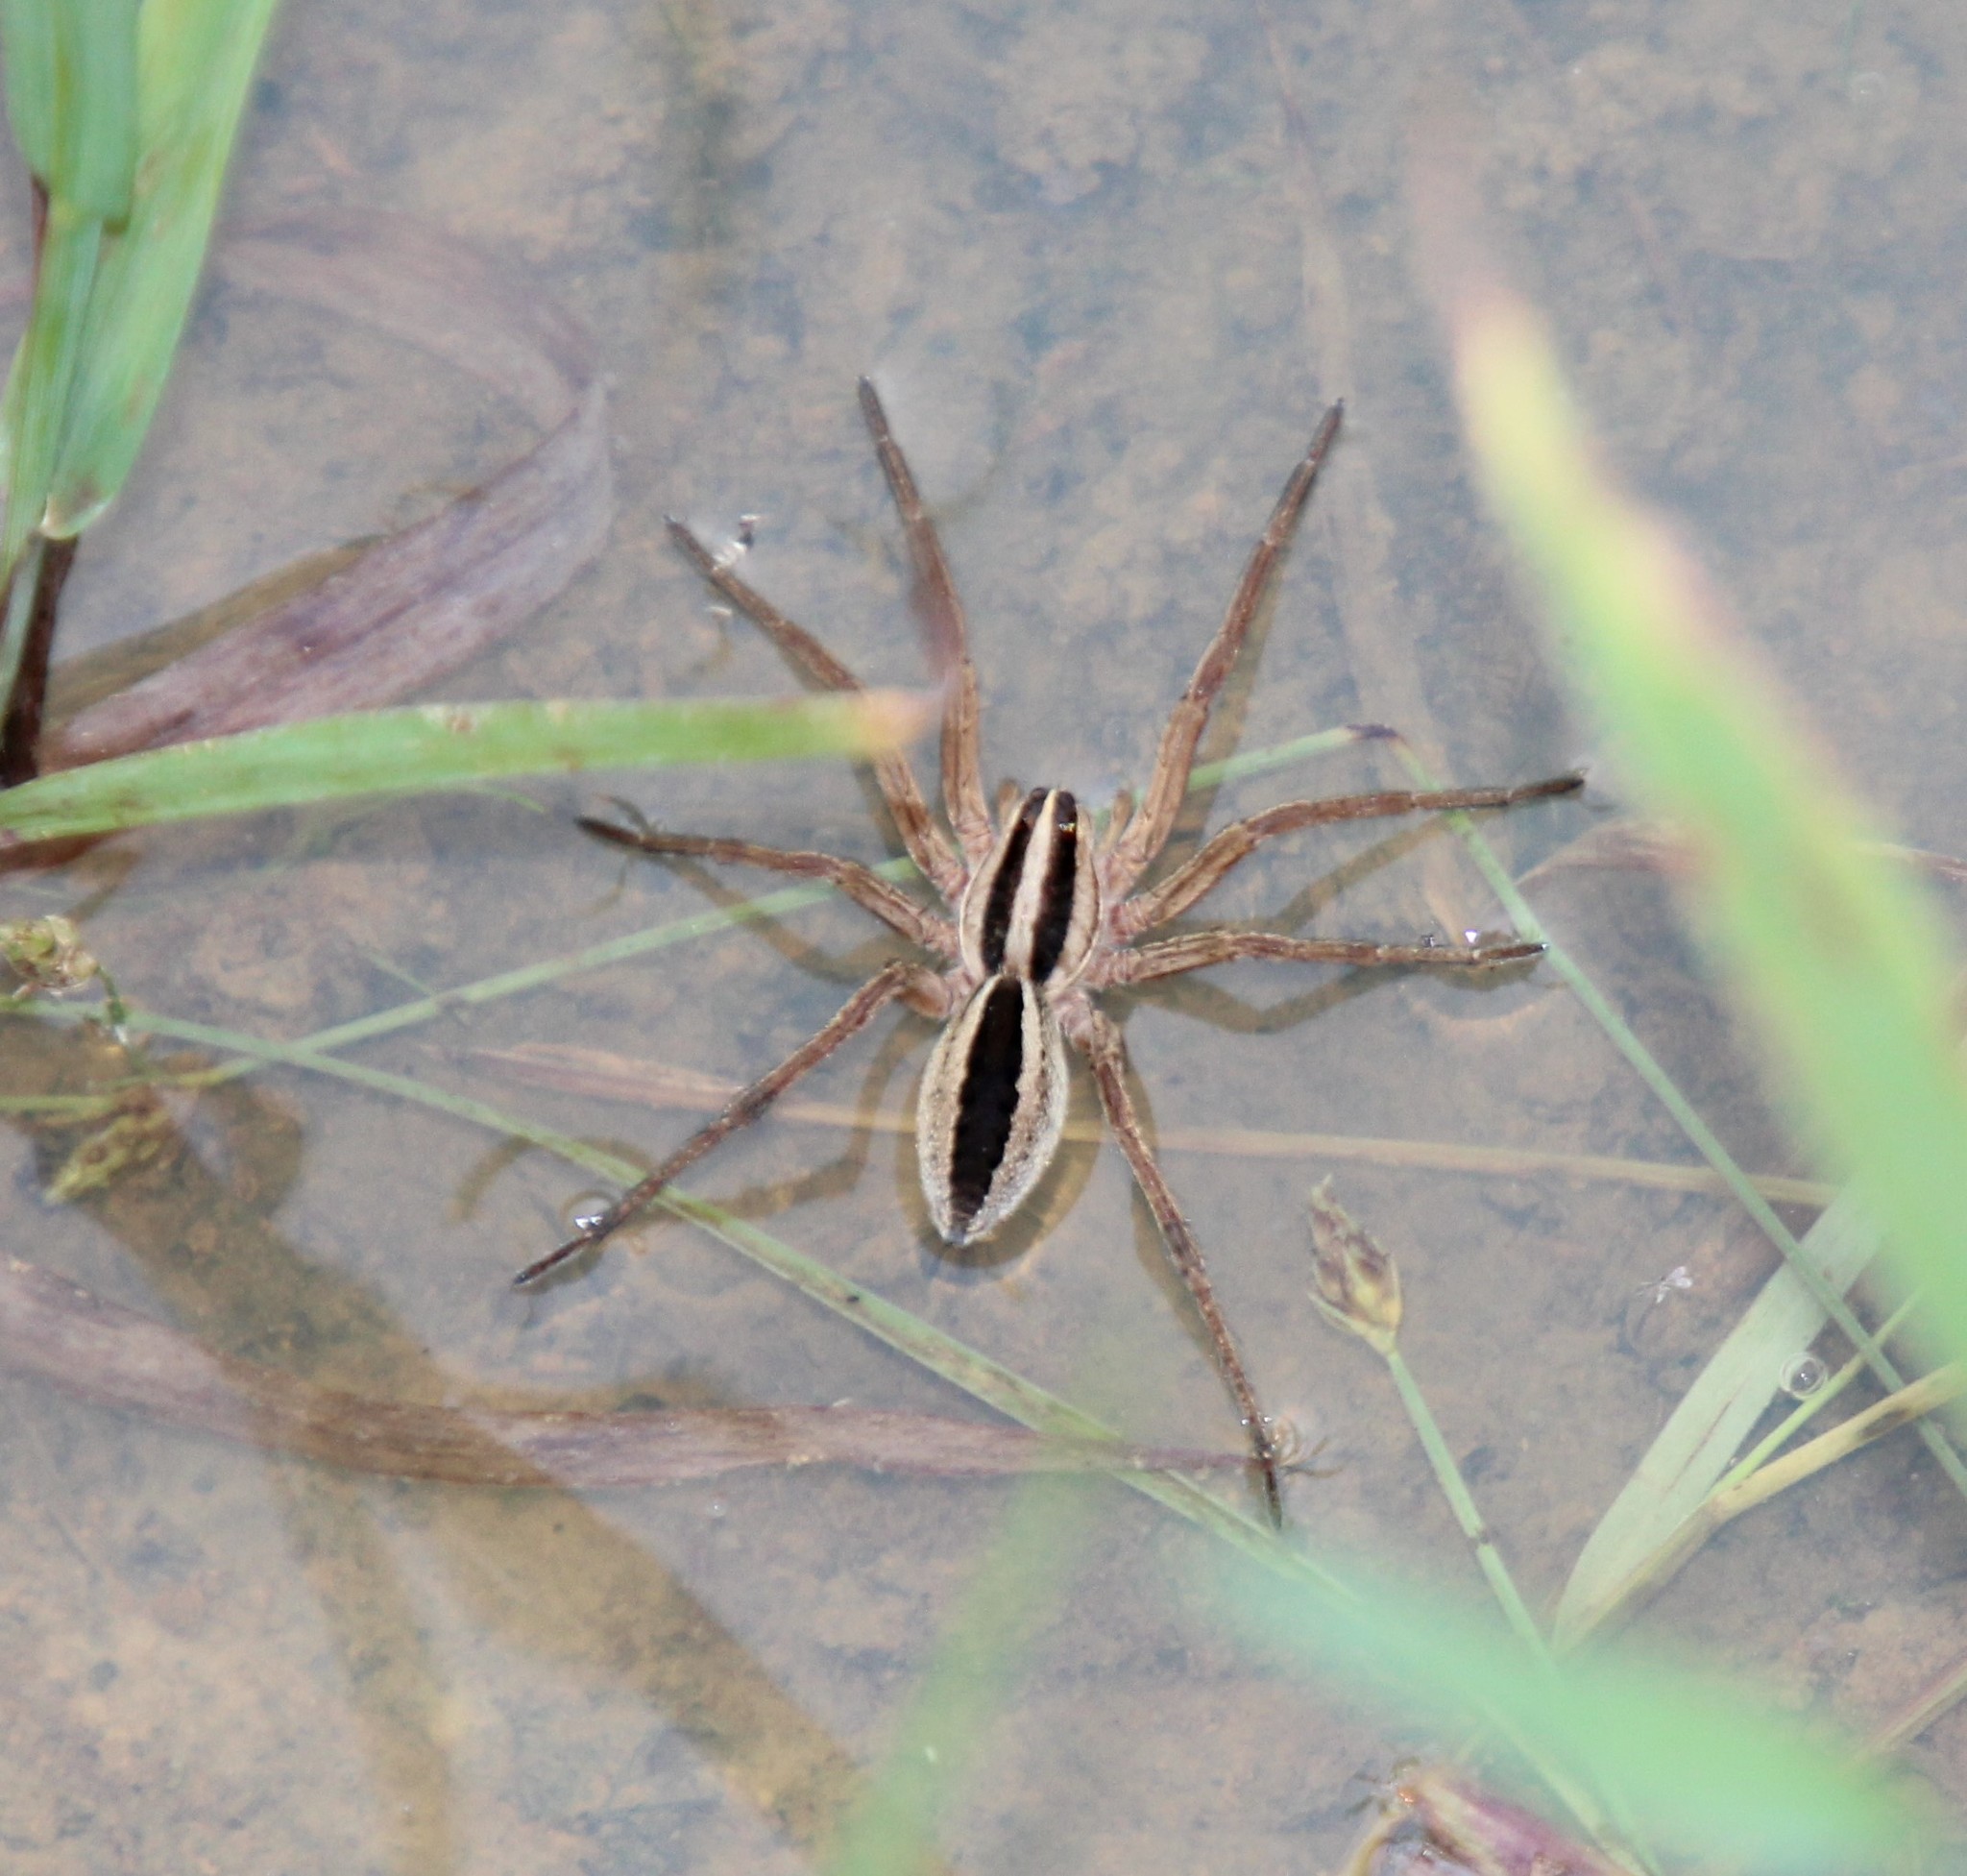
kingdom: Animalia
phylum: Arthropoda
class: Arachnida
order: Araneae
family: Lycosidae
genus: Rabidosa
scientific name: Rabidosa punctulata
